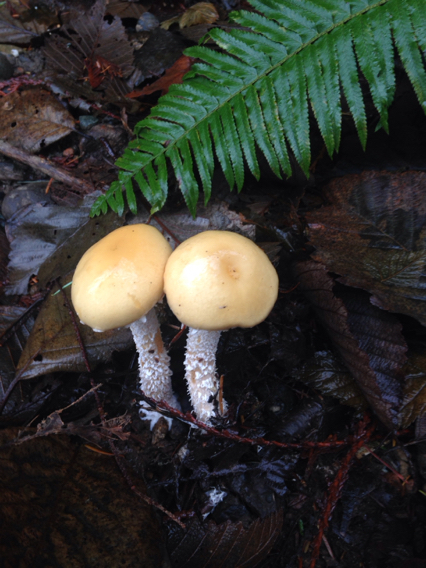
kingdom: Fungi
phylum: Basidiomycota
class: Agaricomycetes
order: Agaricales
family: Strophariaceae
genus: Stropharia
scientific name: Stropharia ambigua
